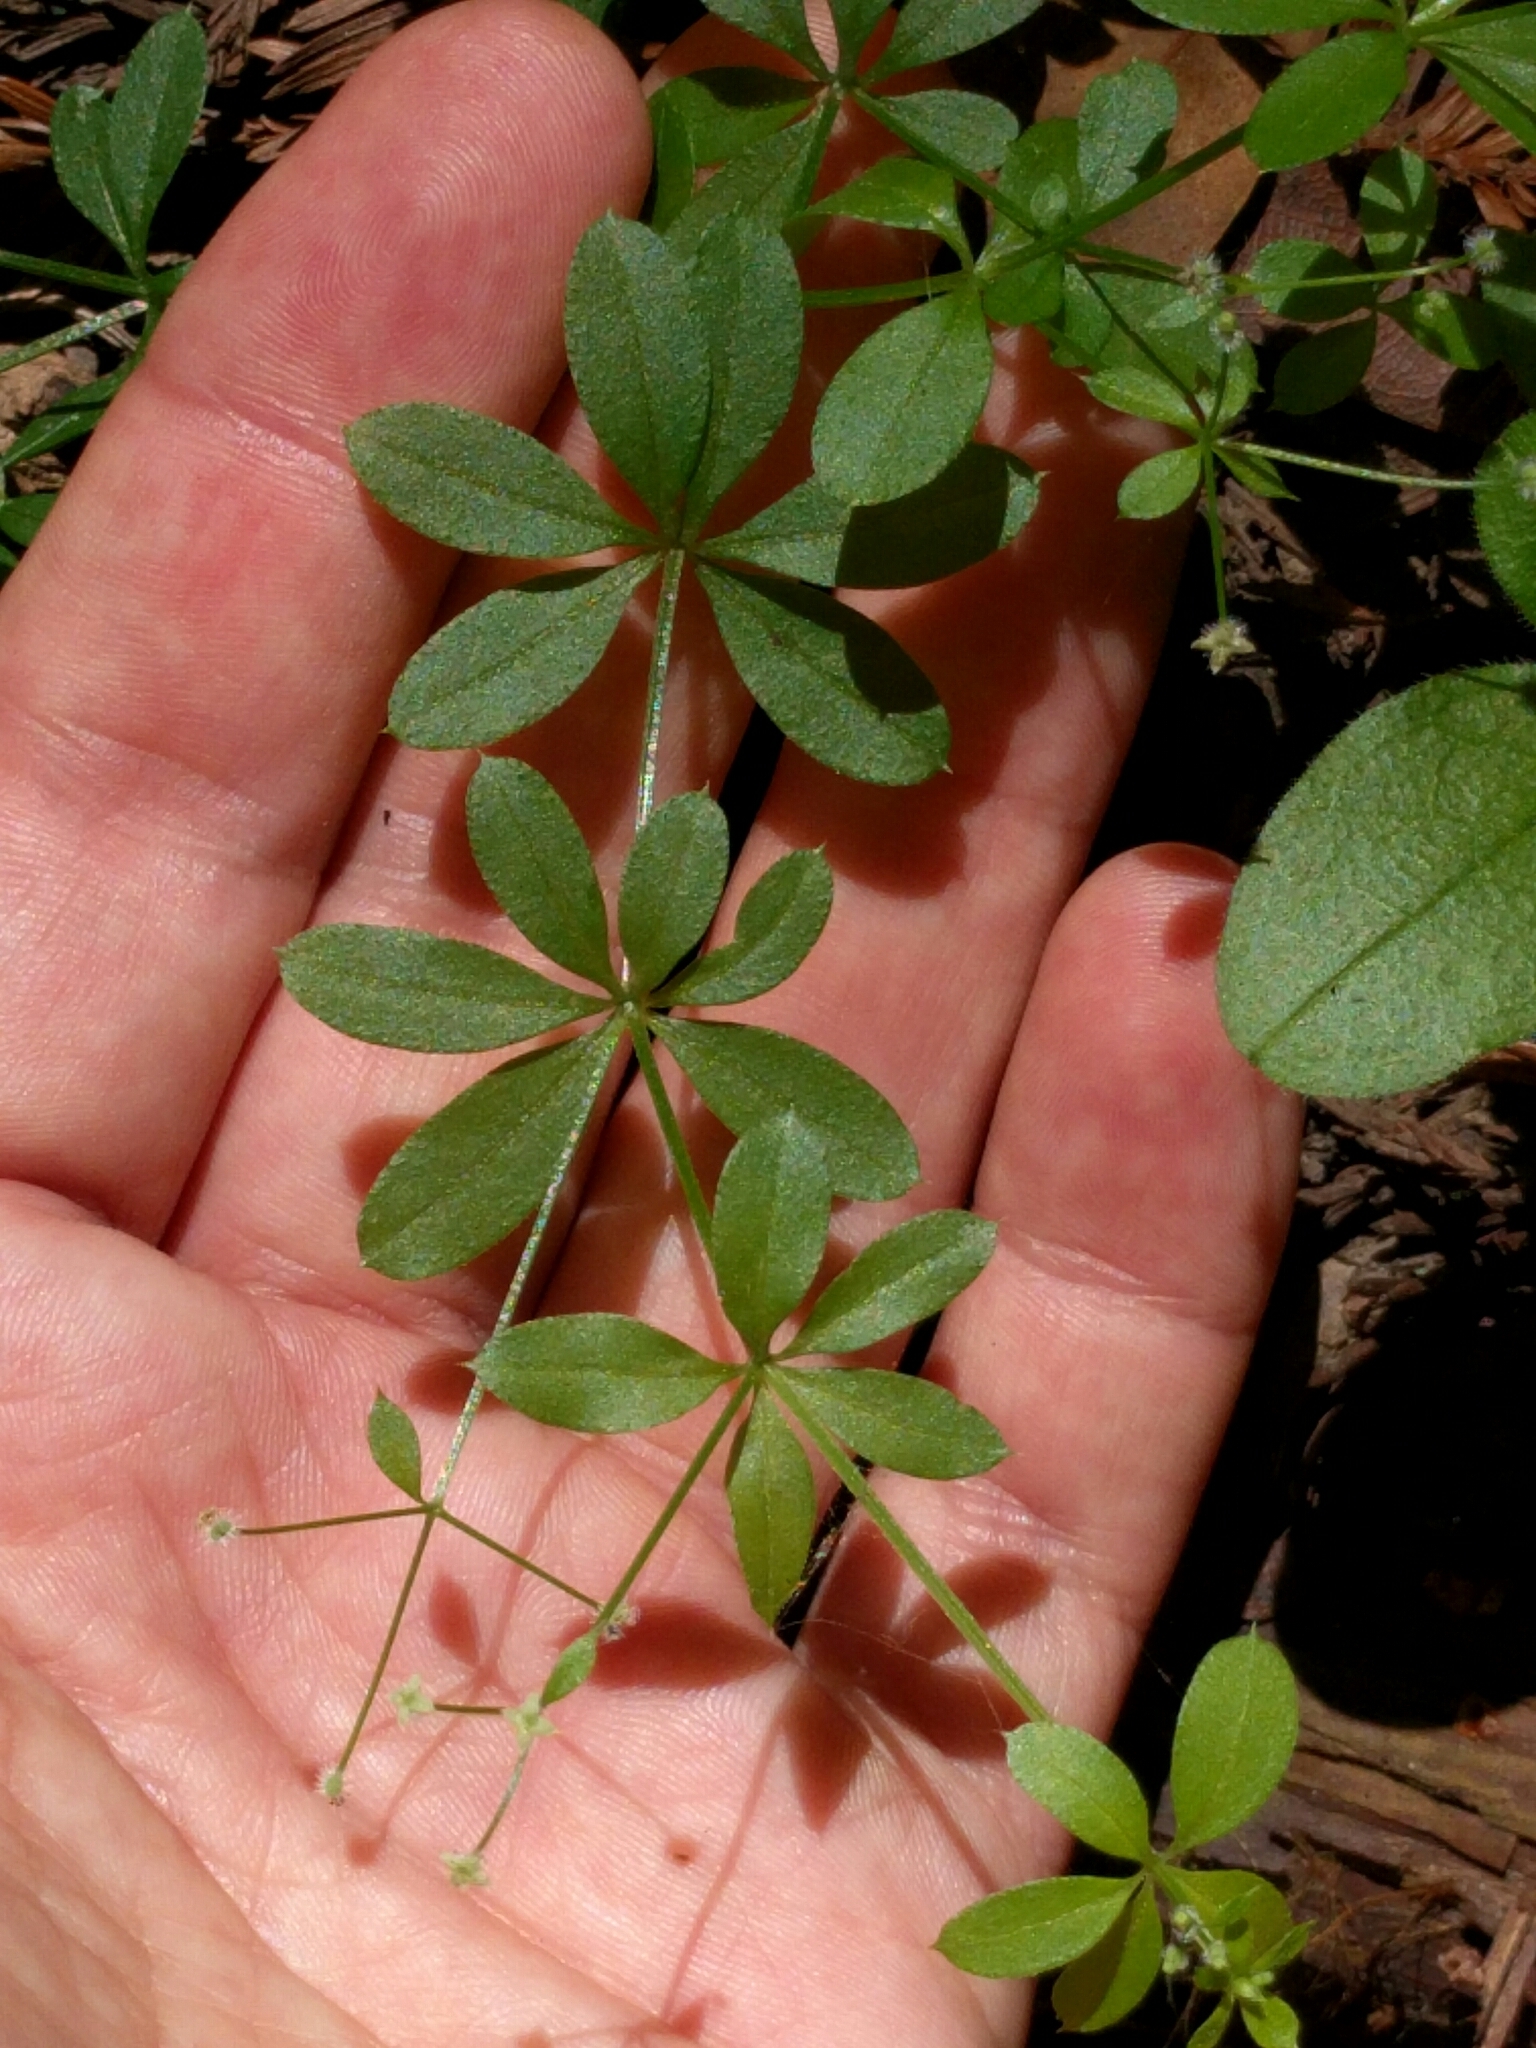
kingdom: Plantae
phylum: Tracheophyta
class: Magnoliopsida
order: Gentianales
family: Rubiaceae
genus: Galium
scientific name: Galium triflorum
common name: Fragrant bedstraw
